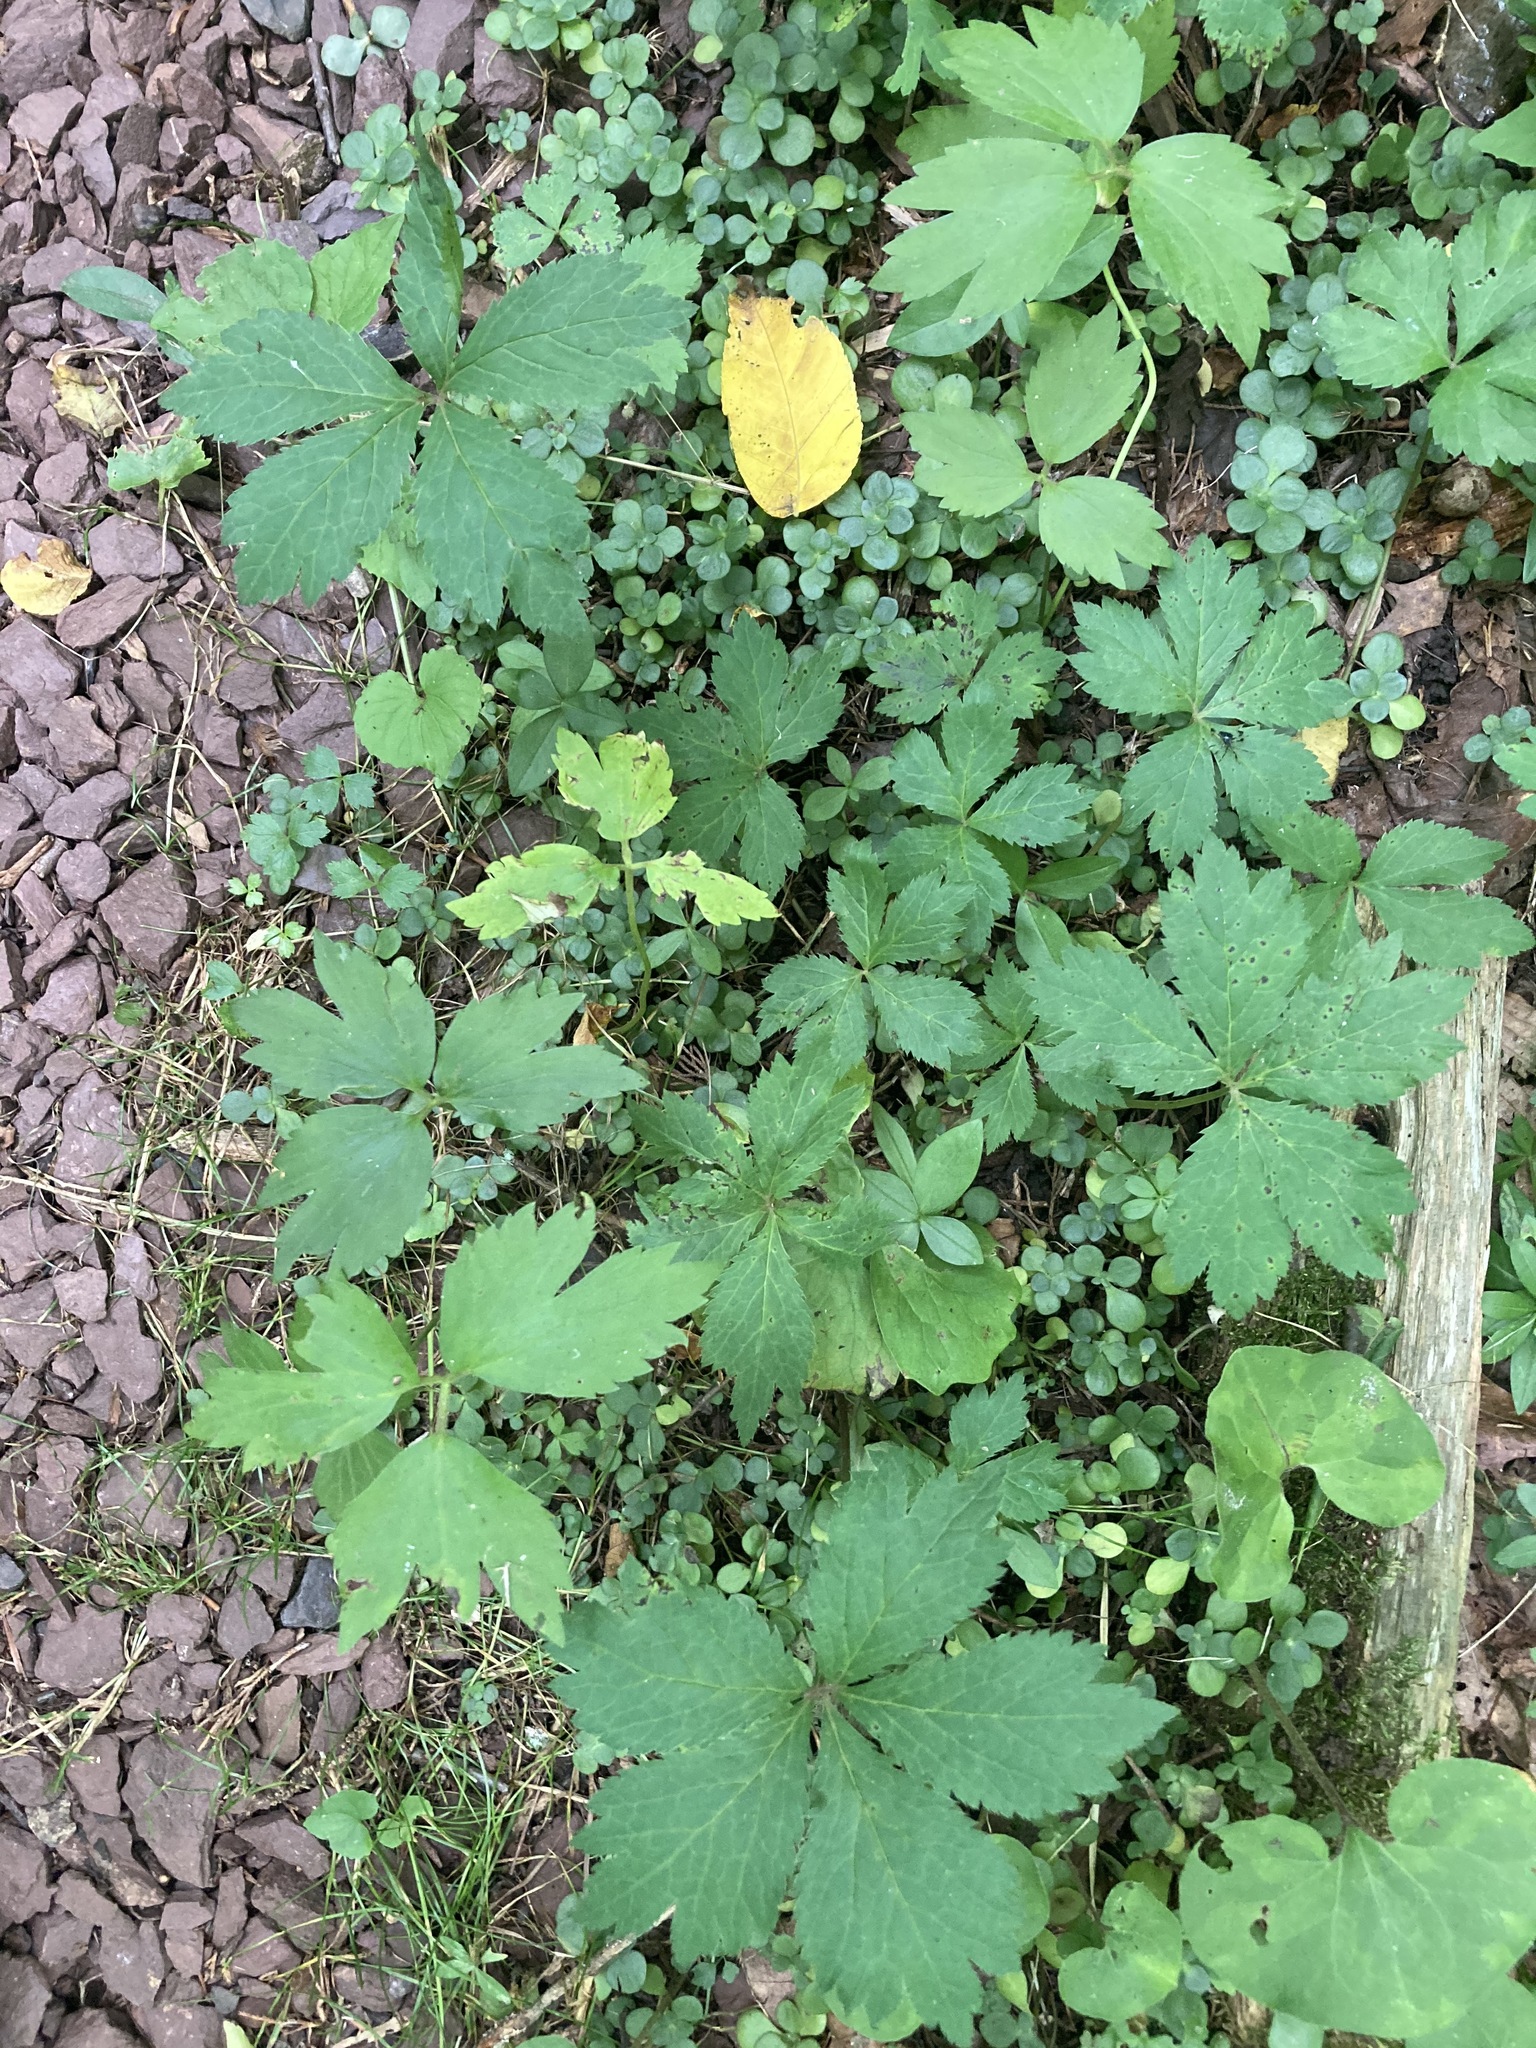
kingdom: Plantae
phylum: Tracheophyta
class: Magnoliopsida
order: Apiales
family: Apiaceae
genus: Sanicula
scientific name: Sanicula canadensis
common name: Canada sanicle
